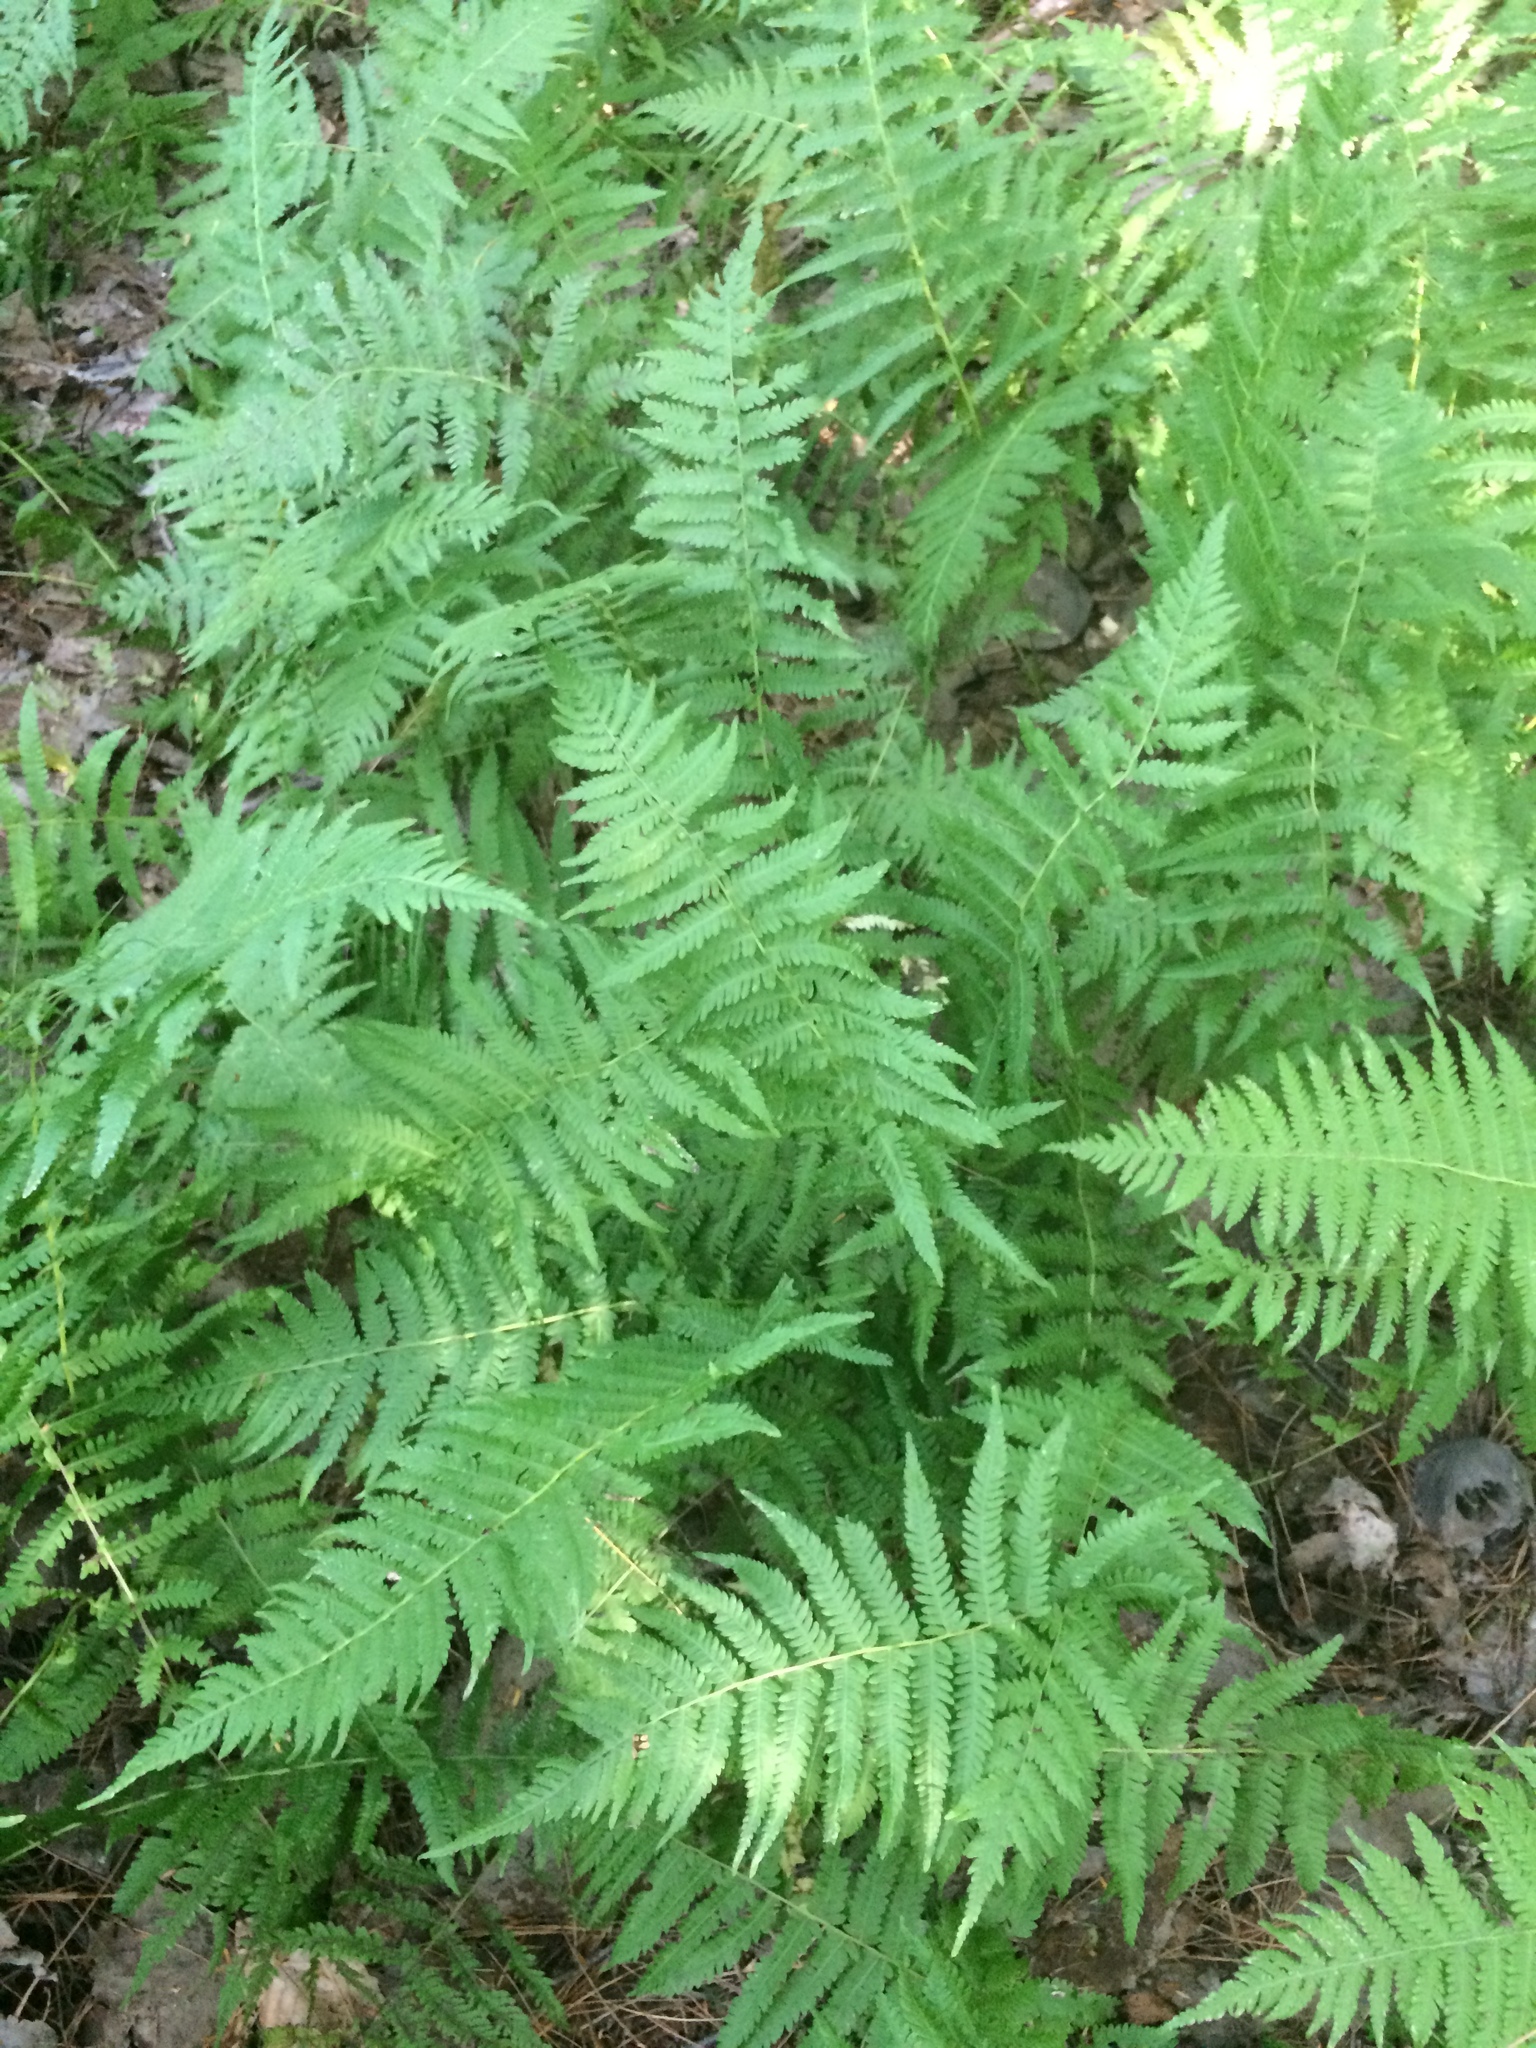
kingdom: Plantae
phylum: Tracheophyta
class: Polypodiopsida
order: Polypodiales
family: Thelypteridaceae
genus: Amauropelta
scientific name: Amauropelta noveboracensis
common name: New york fern
